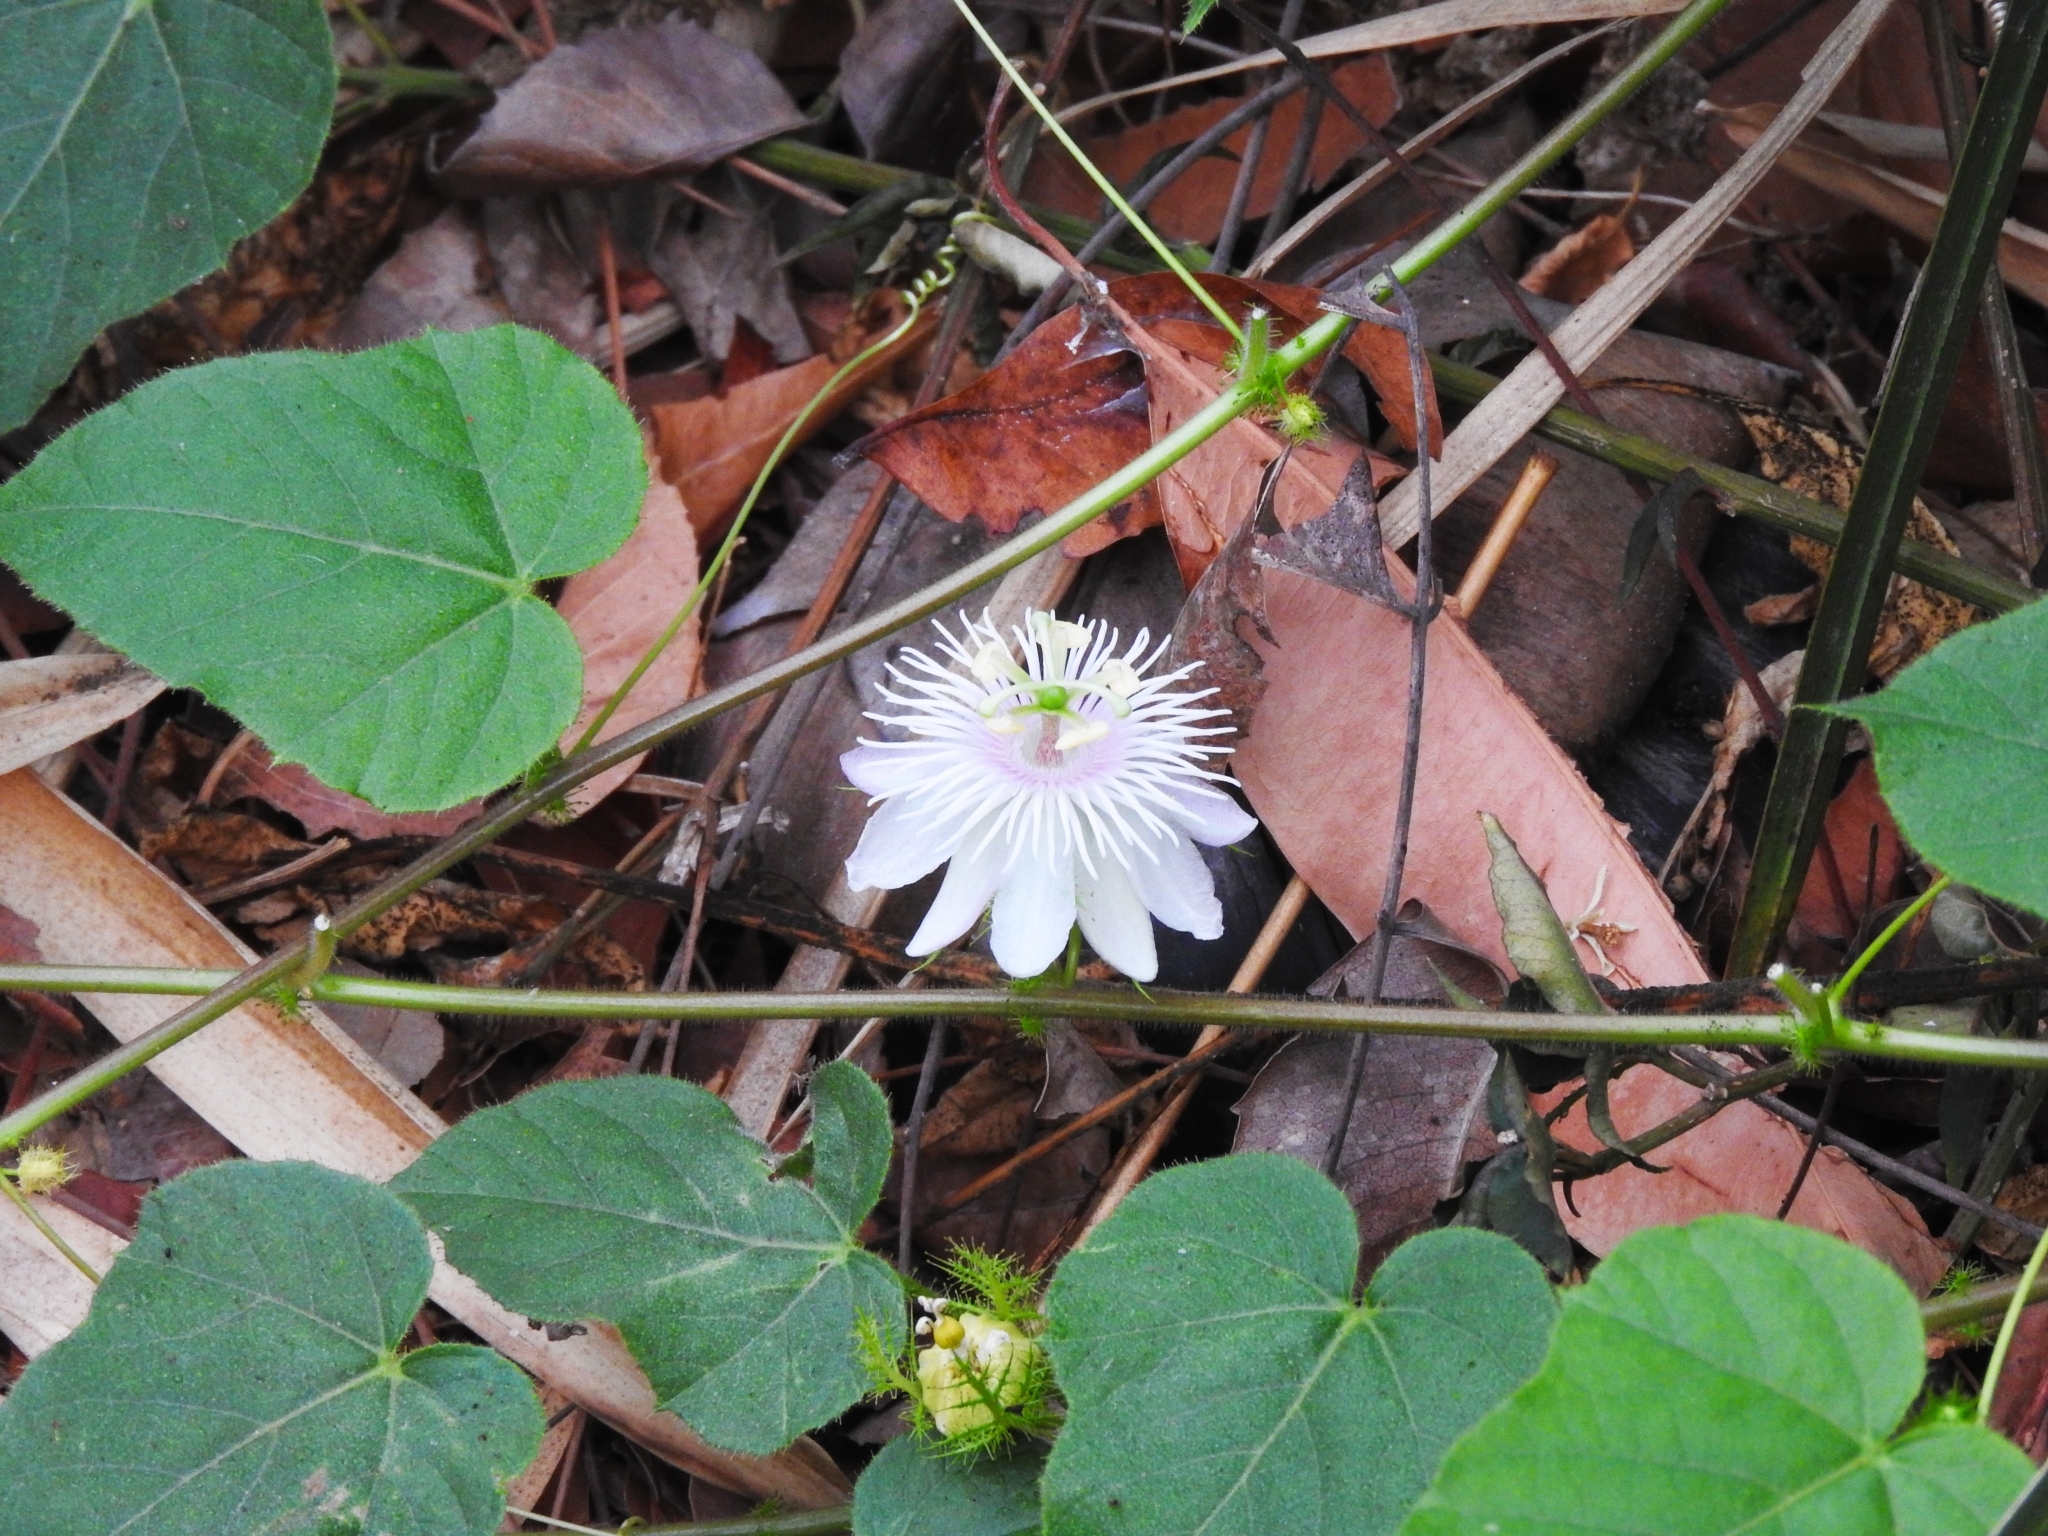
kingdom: Plantae
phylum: Tracheophyta
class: Magnoliopsida
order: Malpighiales
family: Passifloraceae
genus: Passiflora
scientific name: Passiflora foetida
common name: Fetid passionflower
